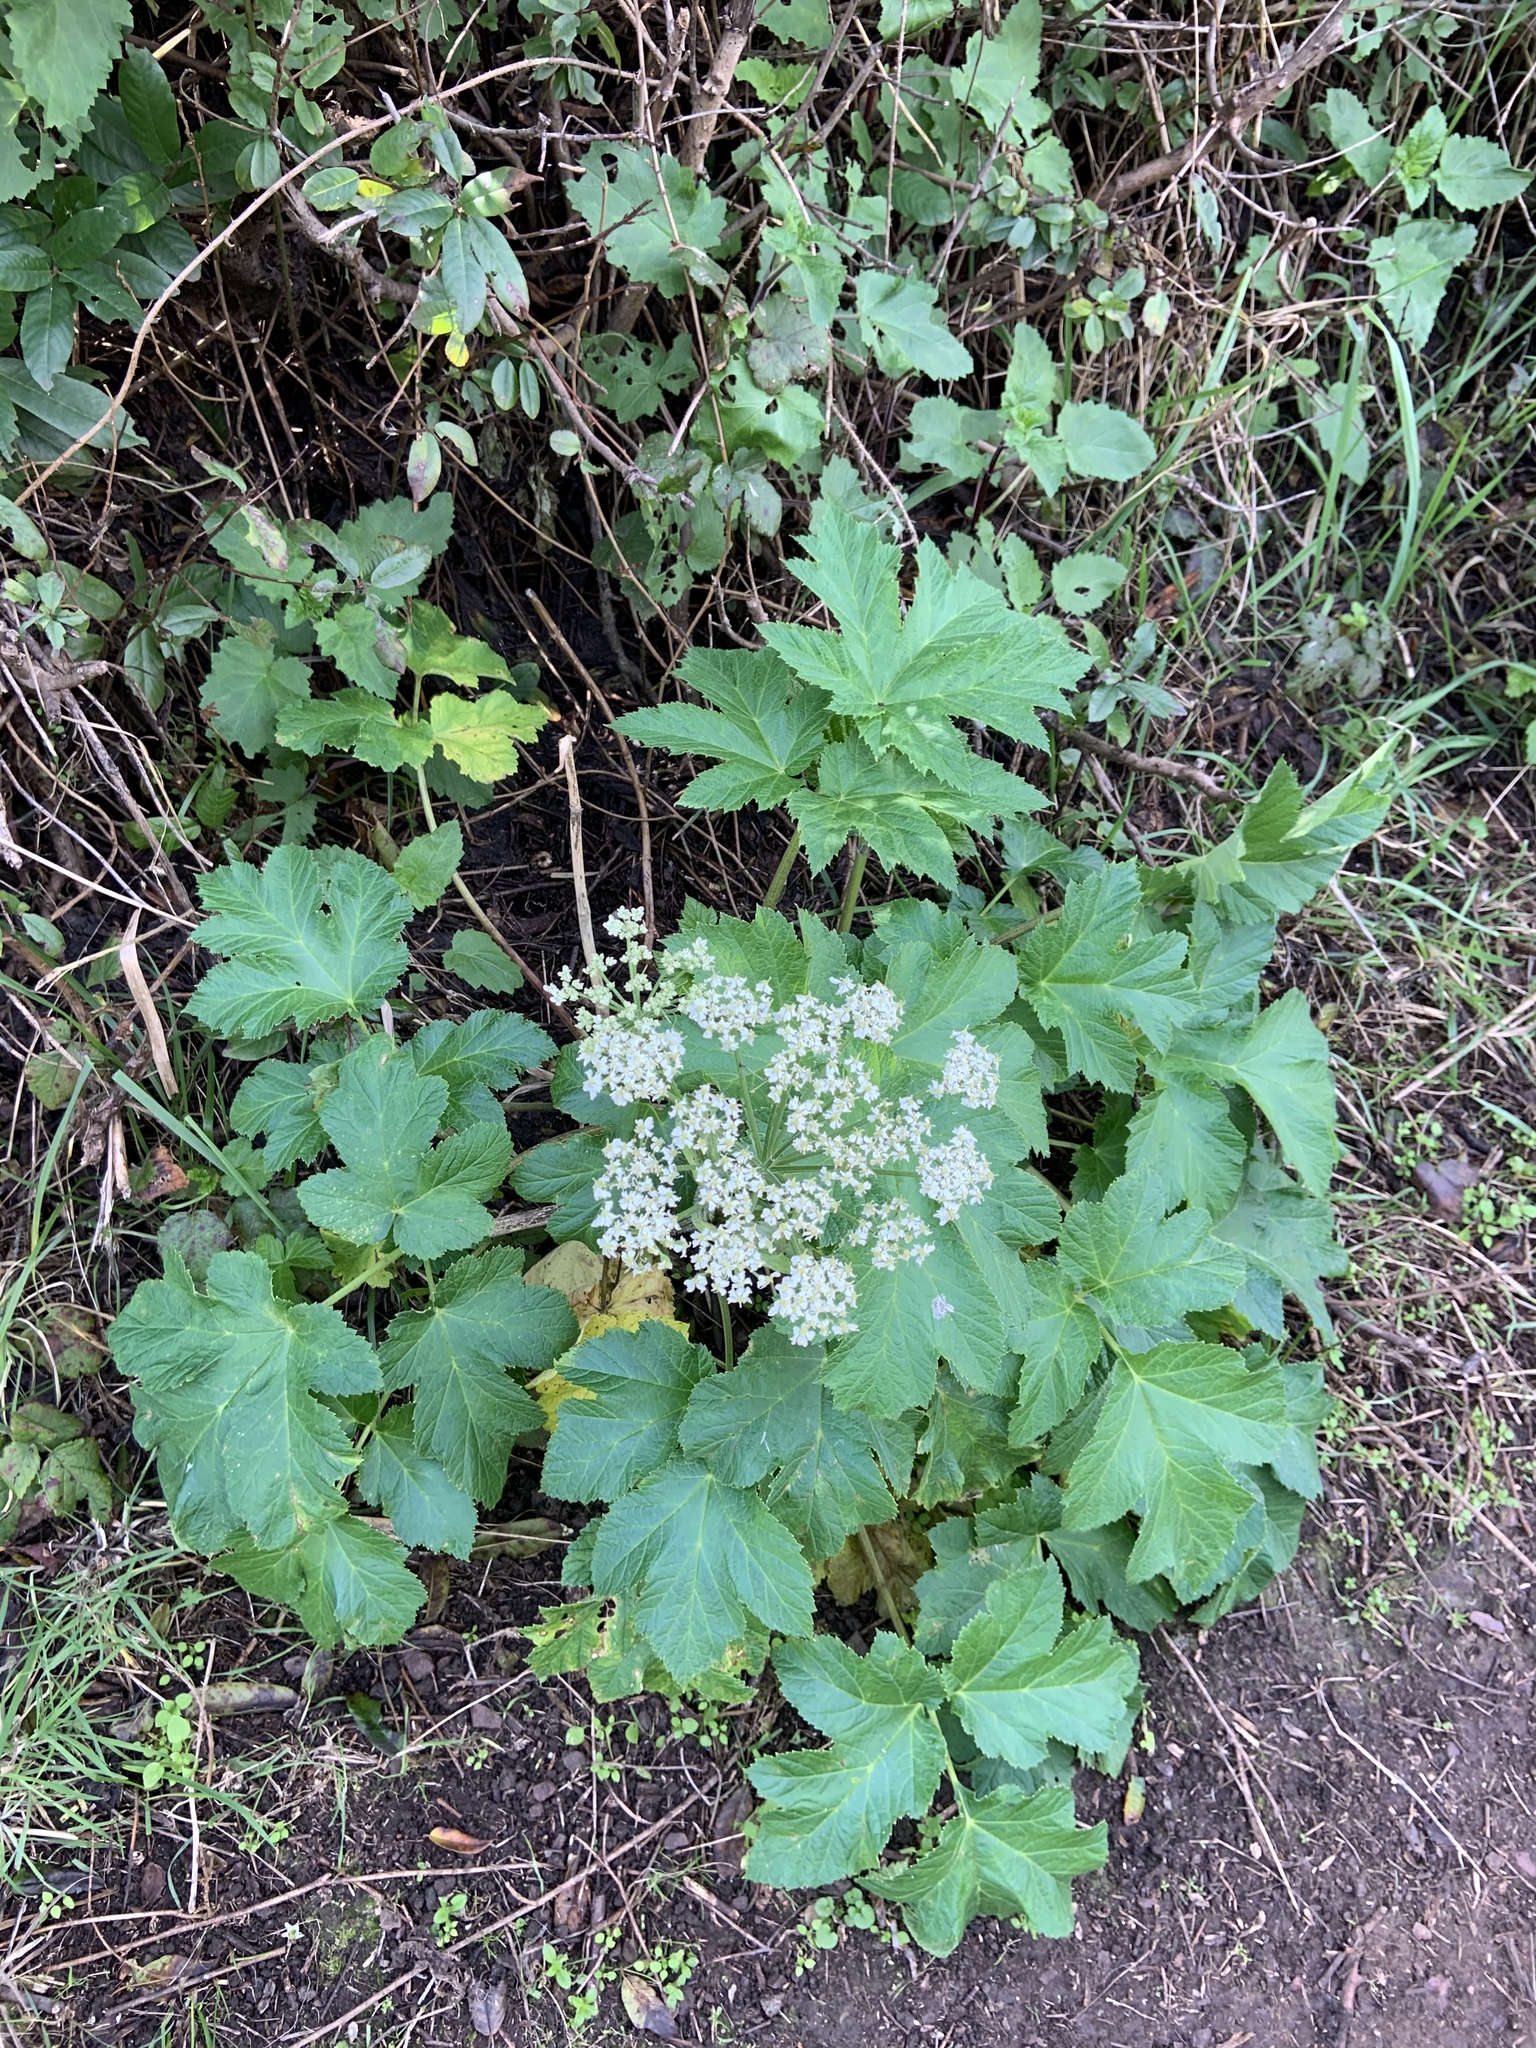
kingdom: Plantae
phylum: Tracheophyta
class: Magnoliopsida
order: Apiales
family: Apiaceae
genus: Heracleum
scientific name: Heracleum maximum
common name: American cow parsnip
